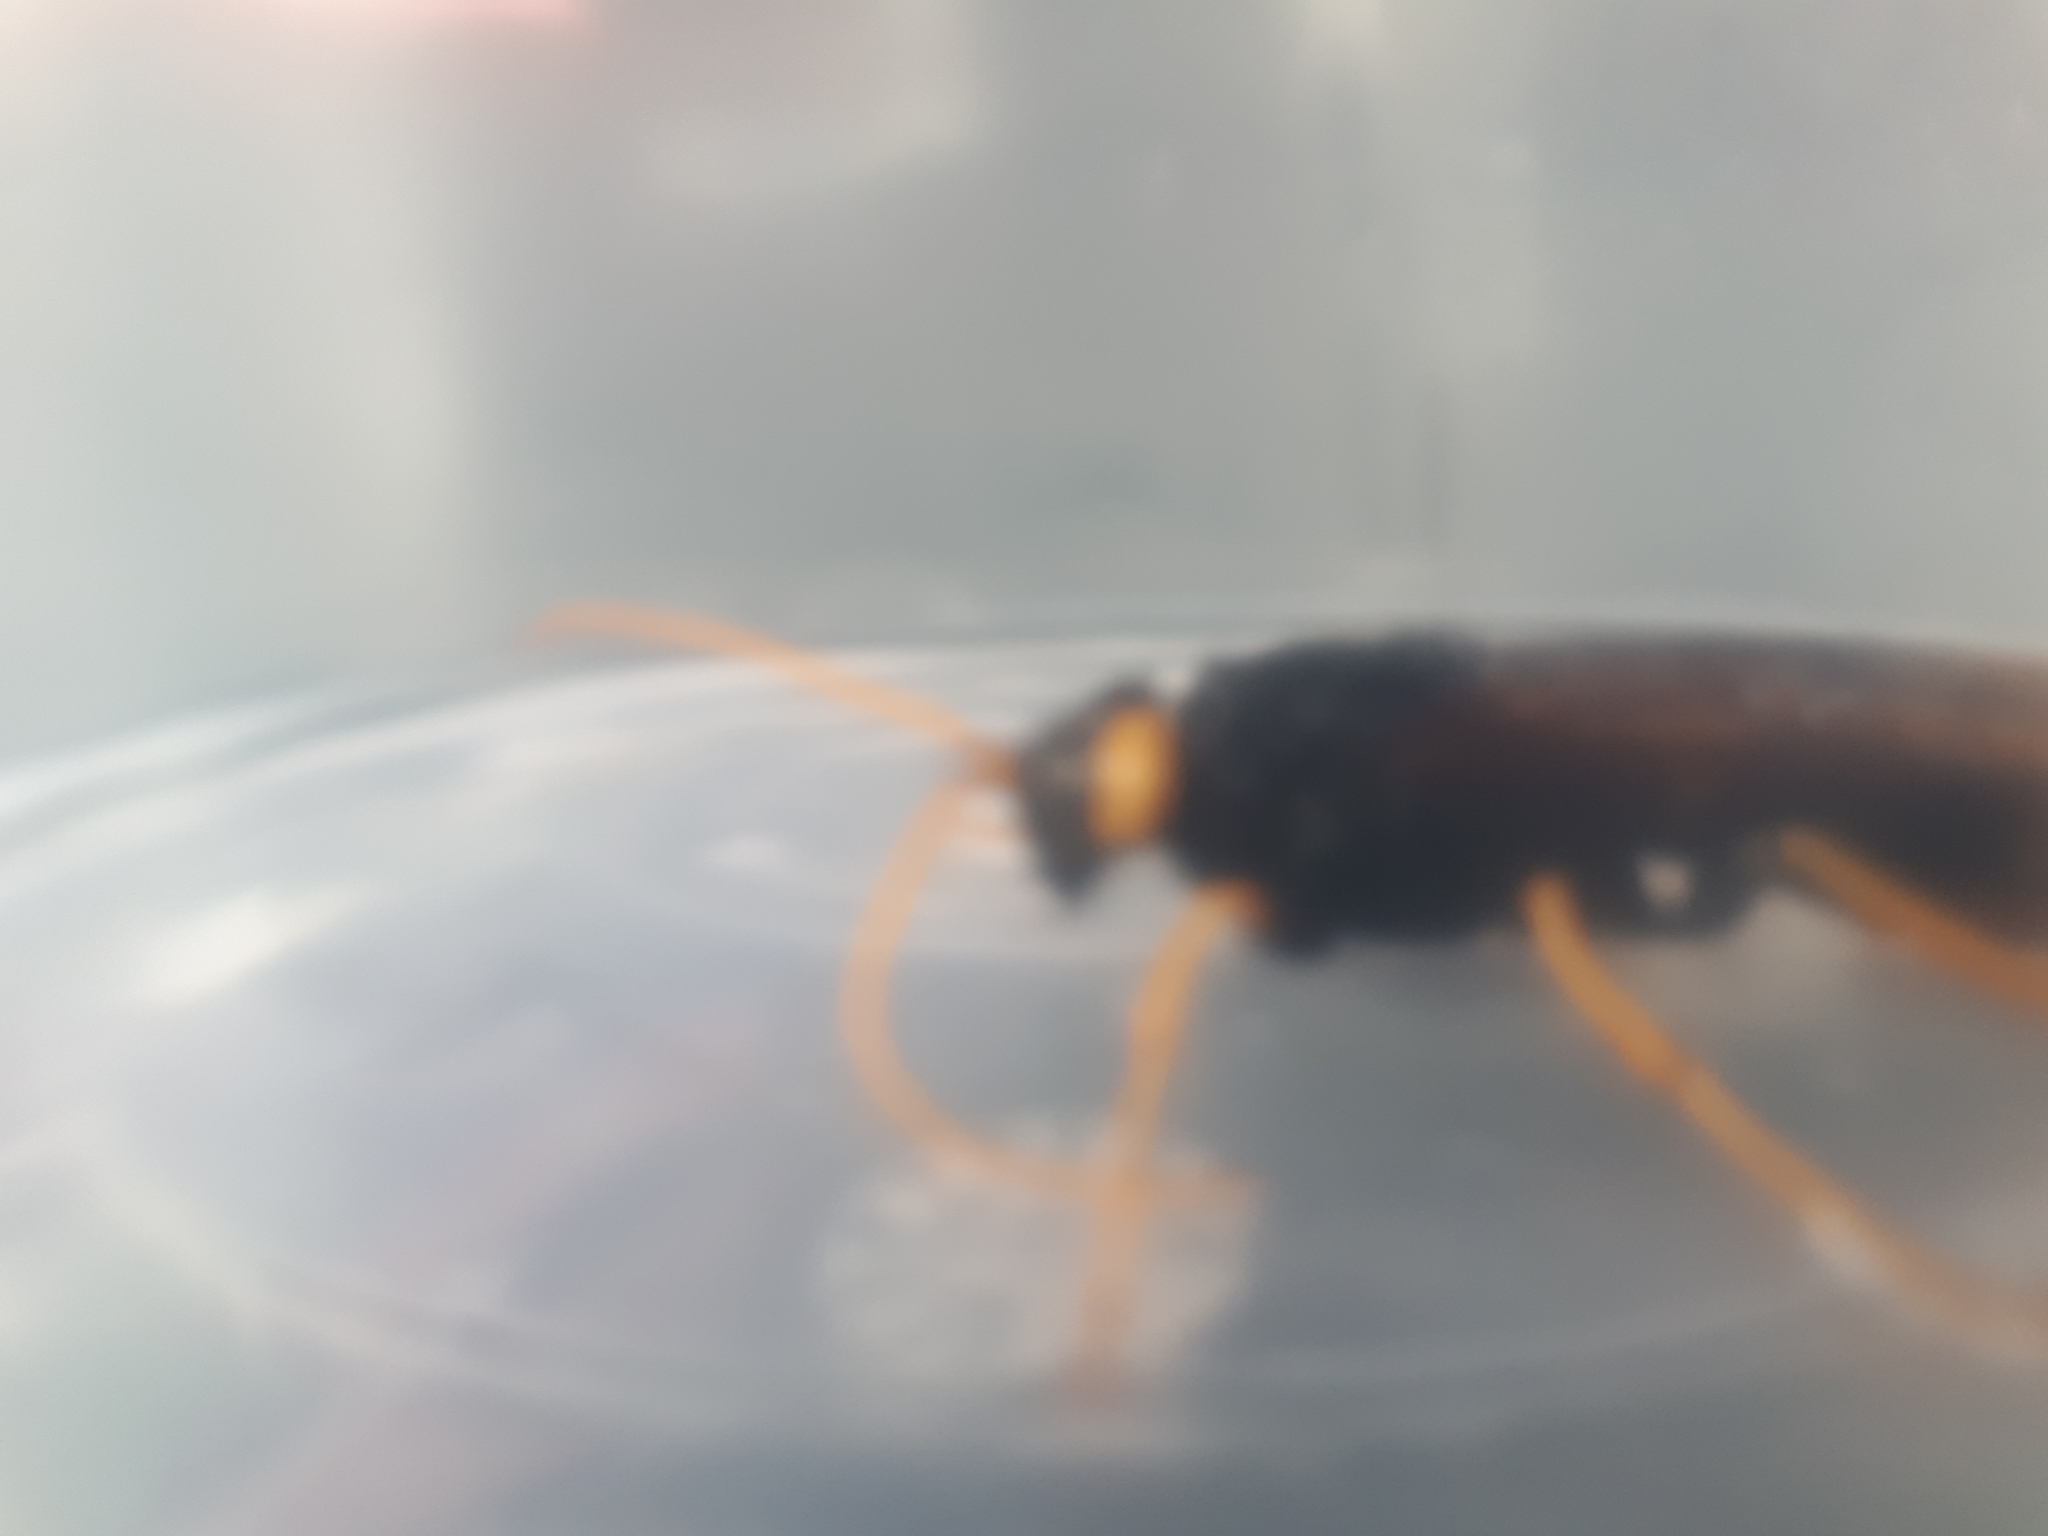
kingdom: Animalia
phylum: Arthropoda
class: Insecta
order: Hymenoptera
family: Siricidae
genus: Urocerus
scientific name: Urocerus gigas
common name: Giant woodwasp
